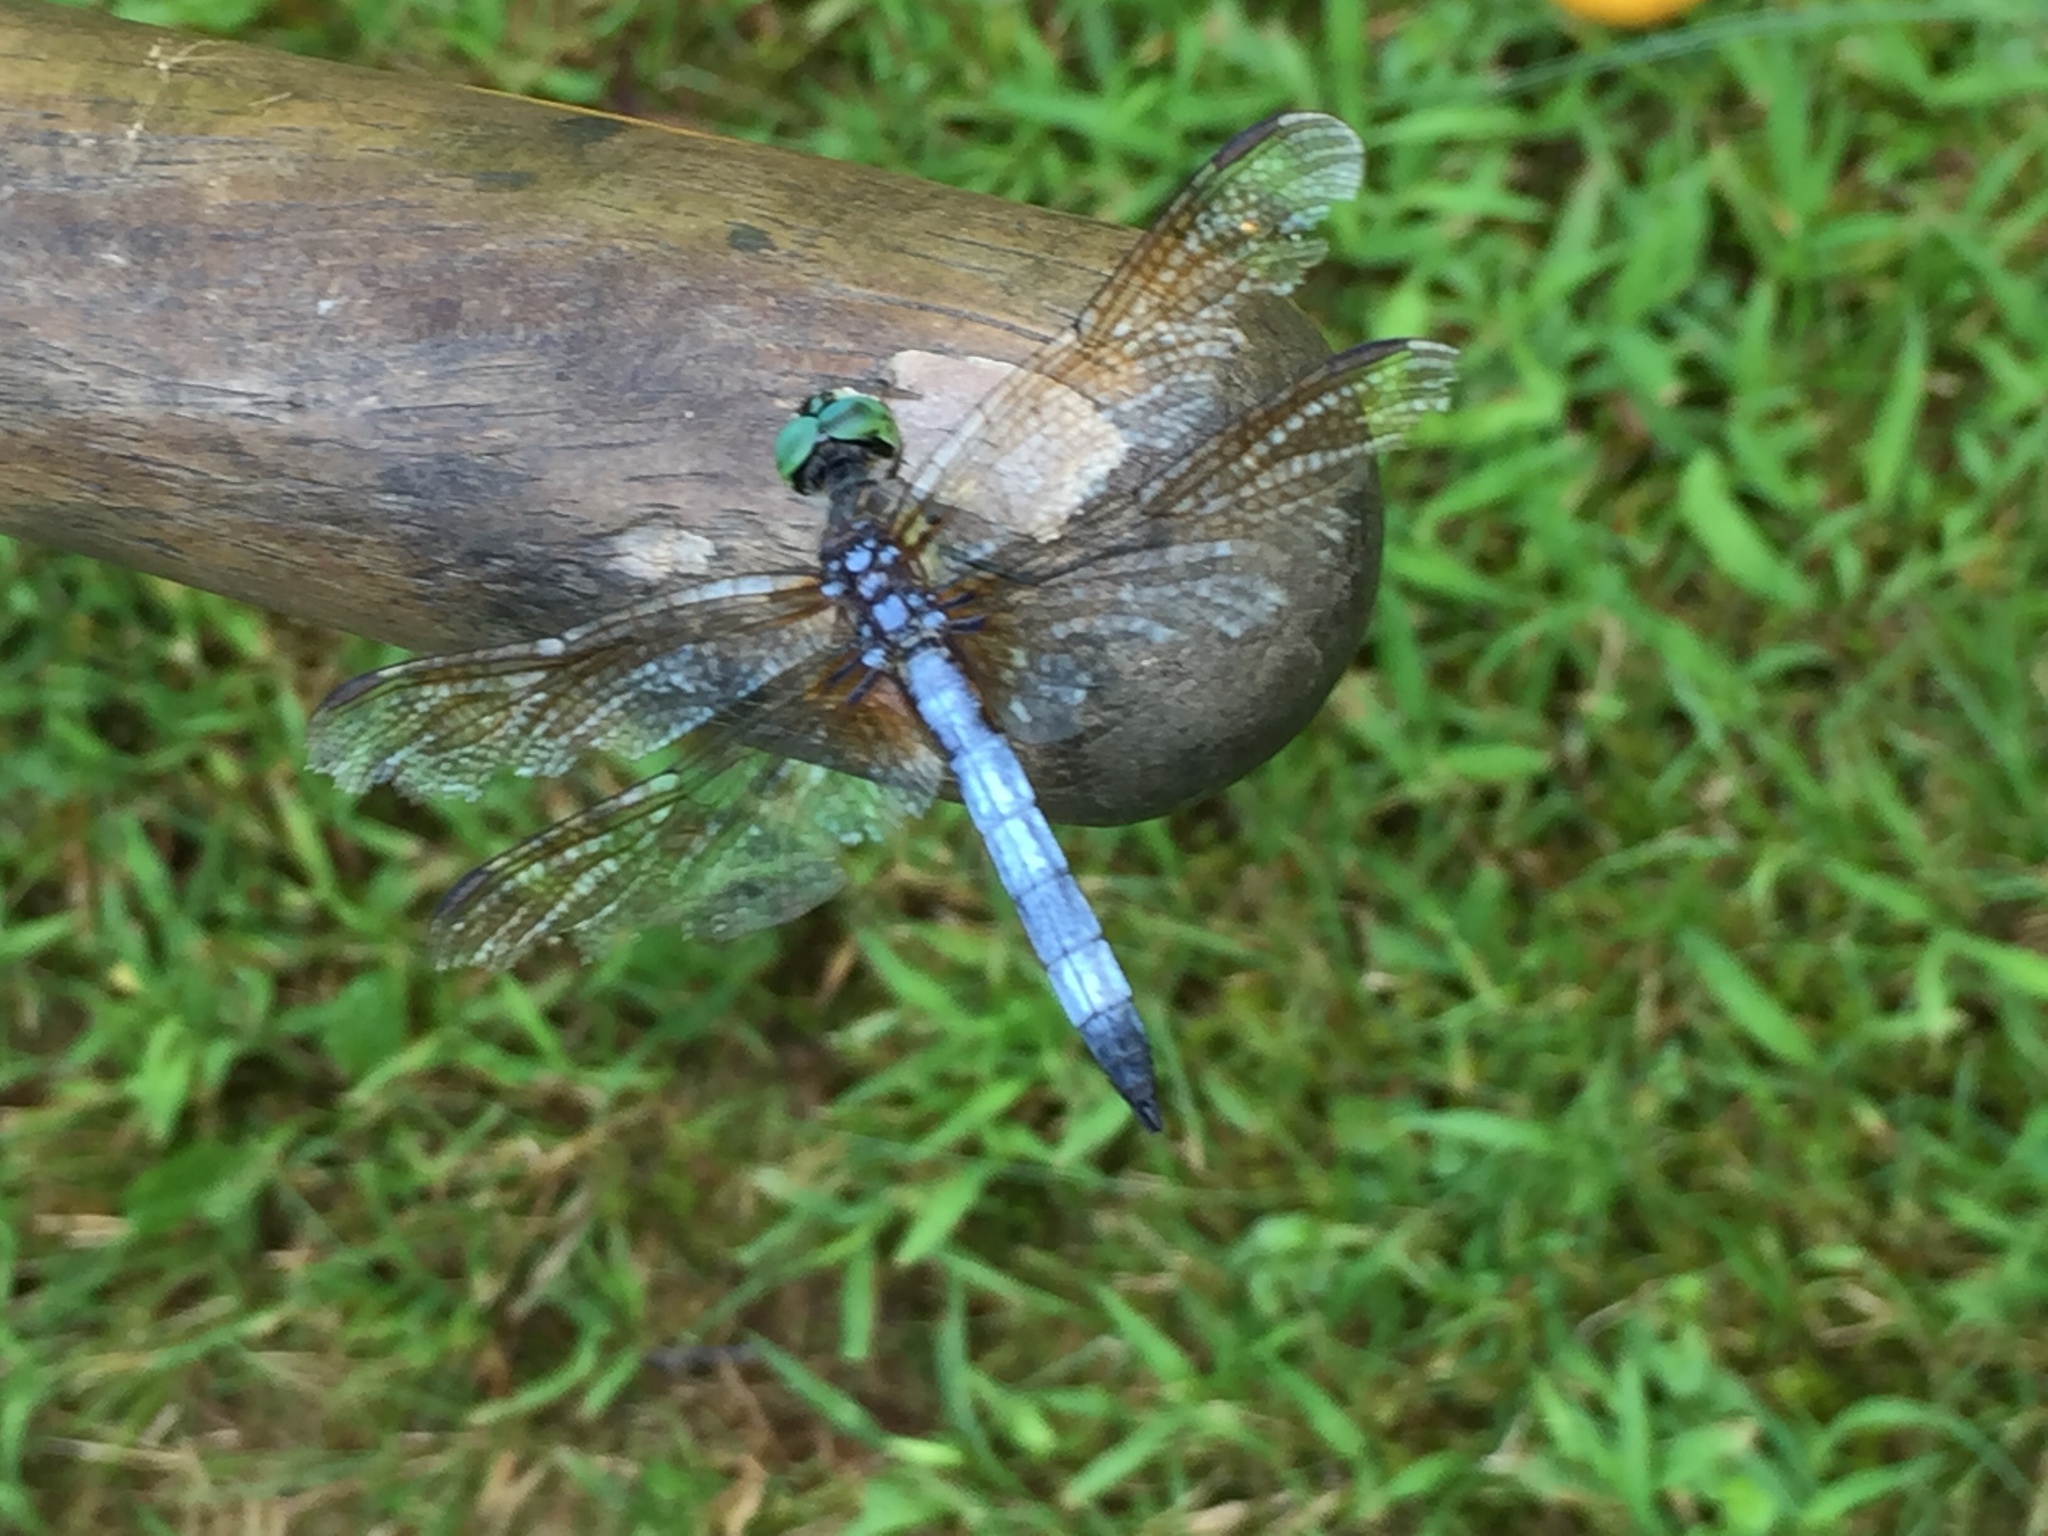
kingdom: Animalia
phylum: Arthropoda
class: Insecta
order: Odonata
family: Libellulidae
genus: Pachydiplax
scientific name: Pachydiplax longipennis
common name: Blue dasher
